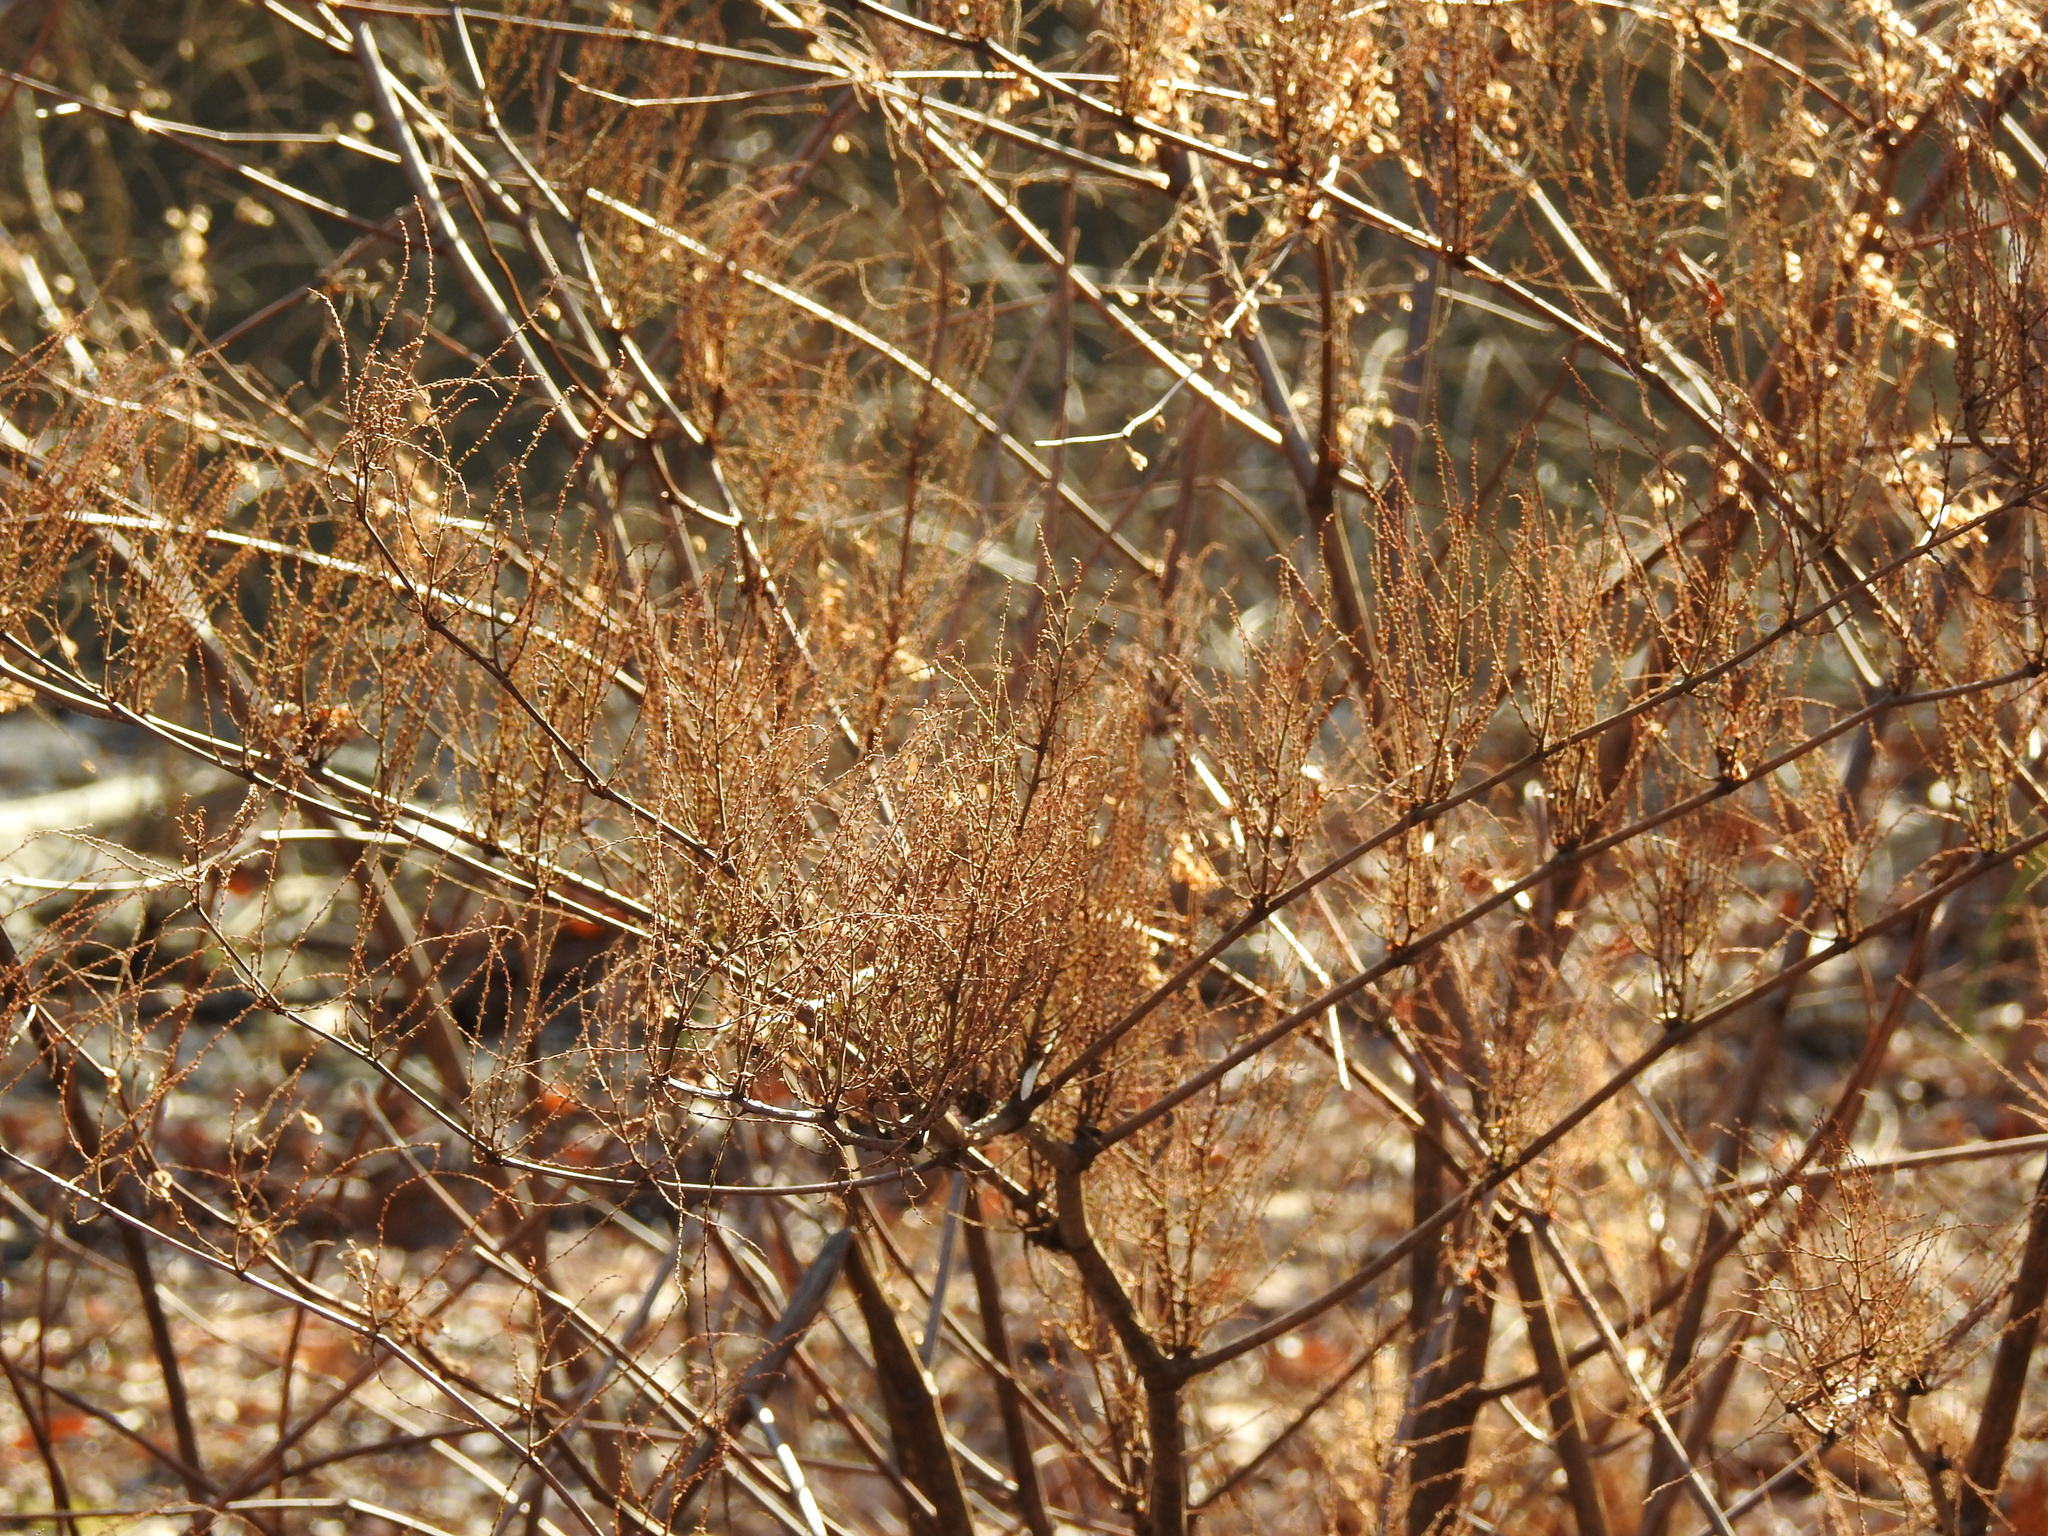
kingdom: Plantae
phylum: Tracheophyta
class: Magnoliopsida
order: Caryophyllales
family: Polygonaceae
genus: Reynoutria
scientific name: Reynoutria japonica
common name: Japanese knotweed
